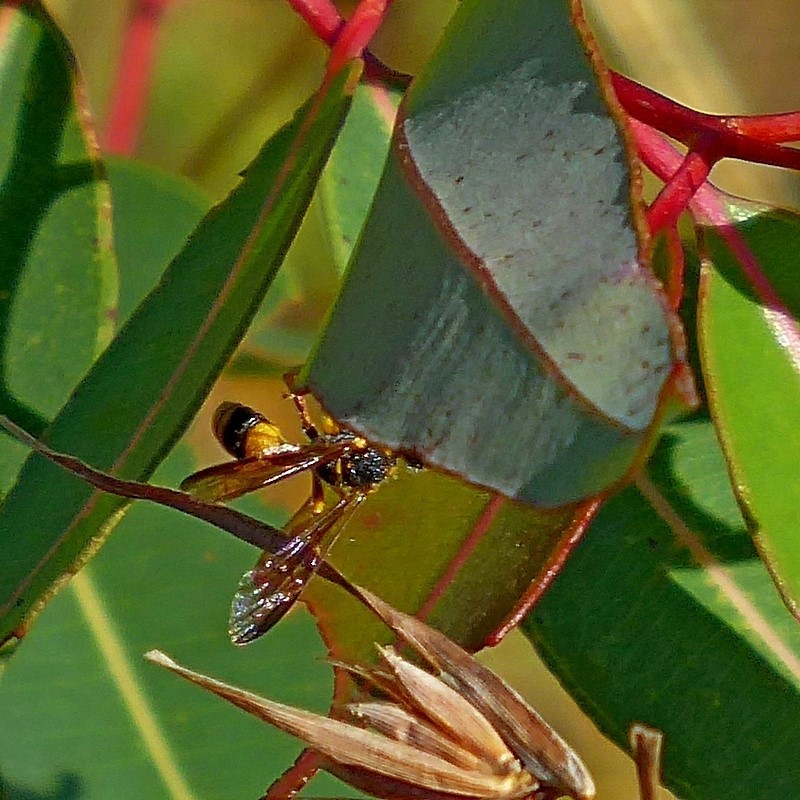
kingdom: Animalia
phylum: Arthropoda
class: Insecta
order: Hymenoptera
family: Crabronidae
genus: Cerceris
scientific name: Cerceris australis
